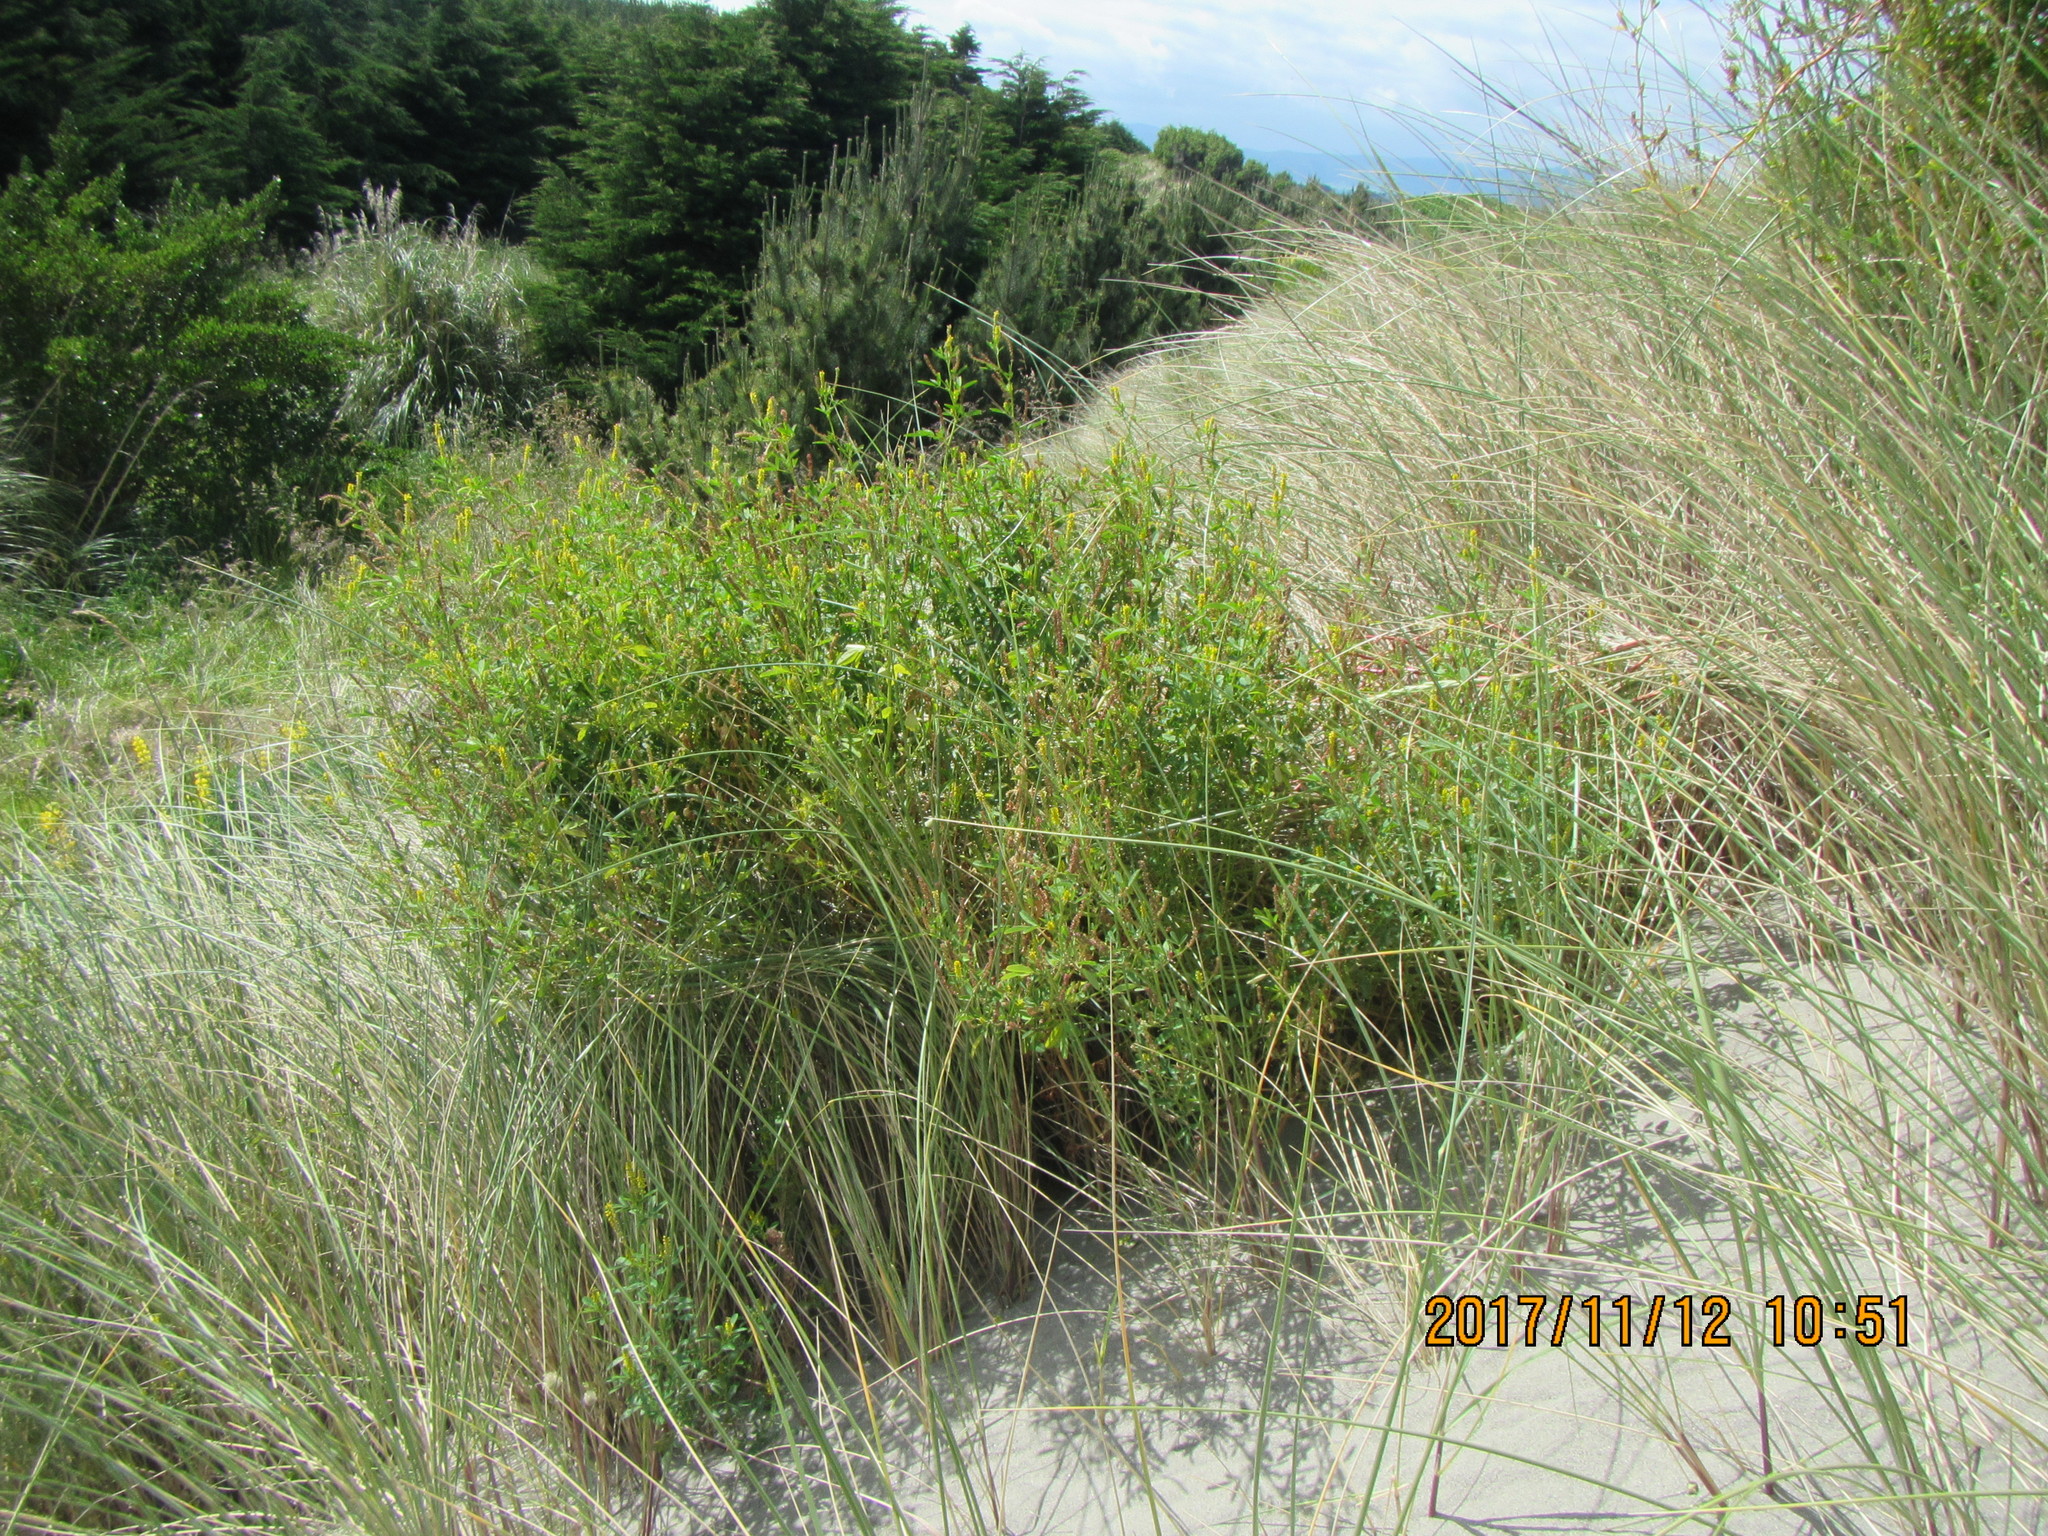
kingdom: Plantae
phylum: Tracheophyta
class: Magnoliopsida
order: Fabales
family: Fabaceae
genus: Melilotus
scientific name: Melilotus indicus
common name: Small melilot
